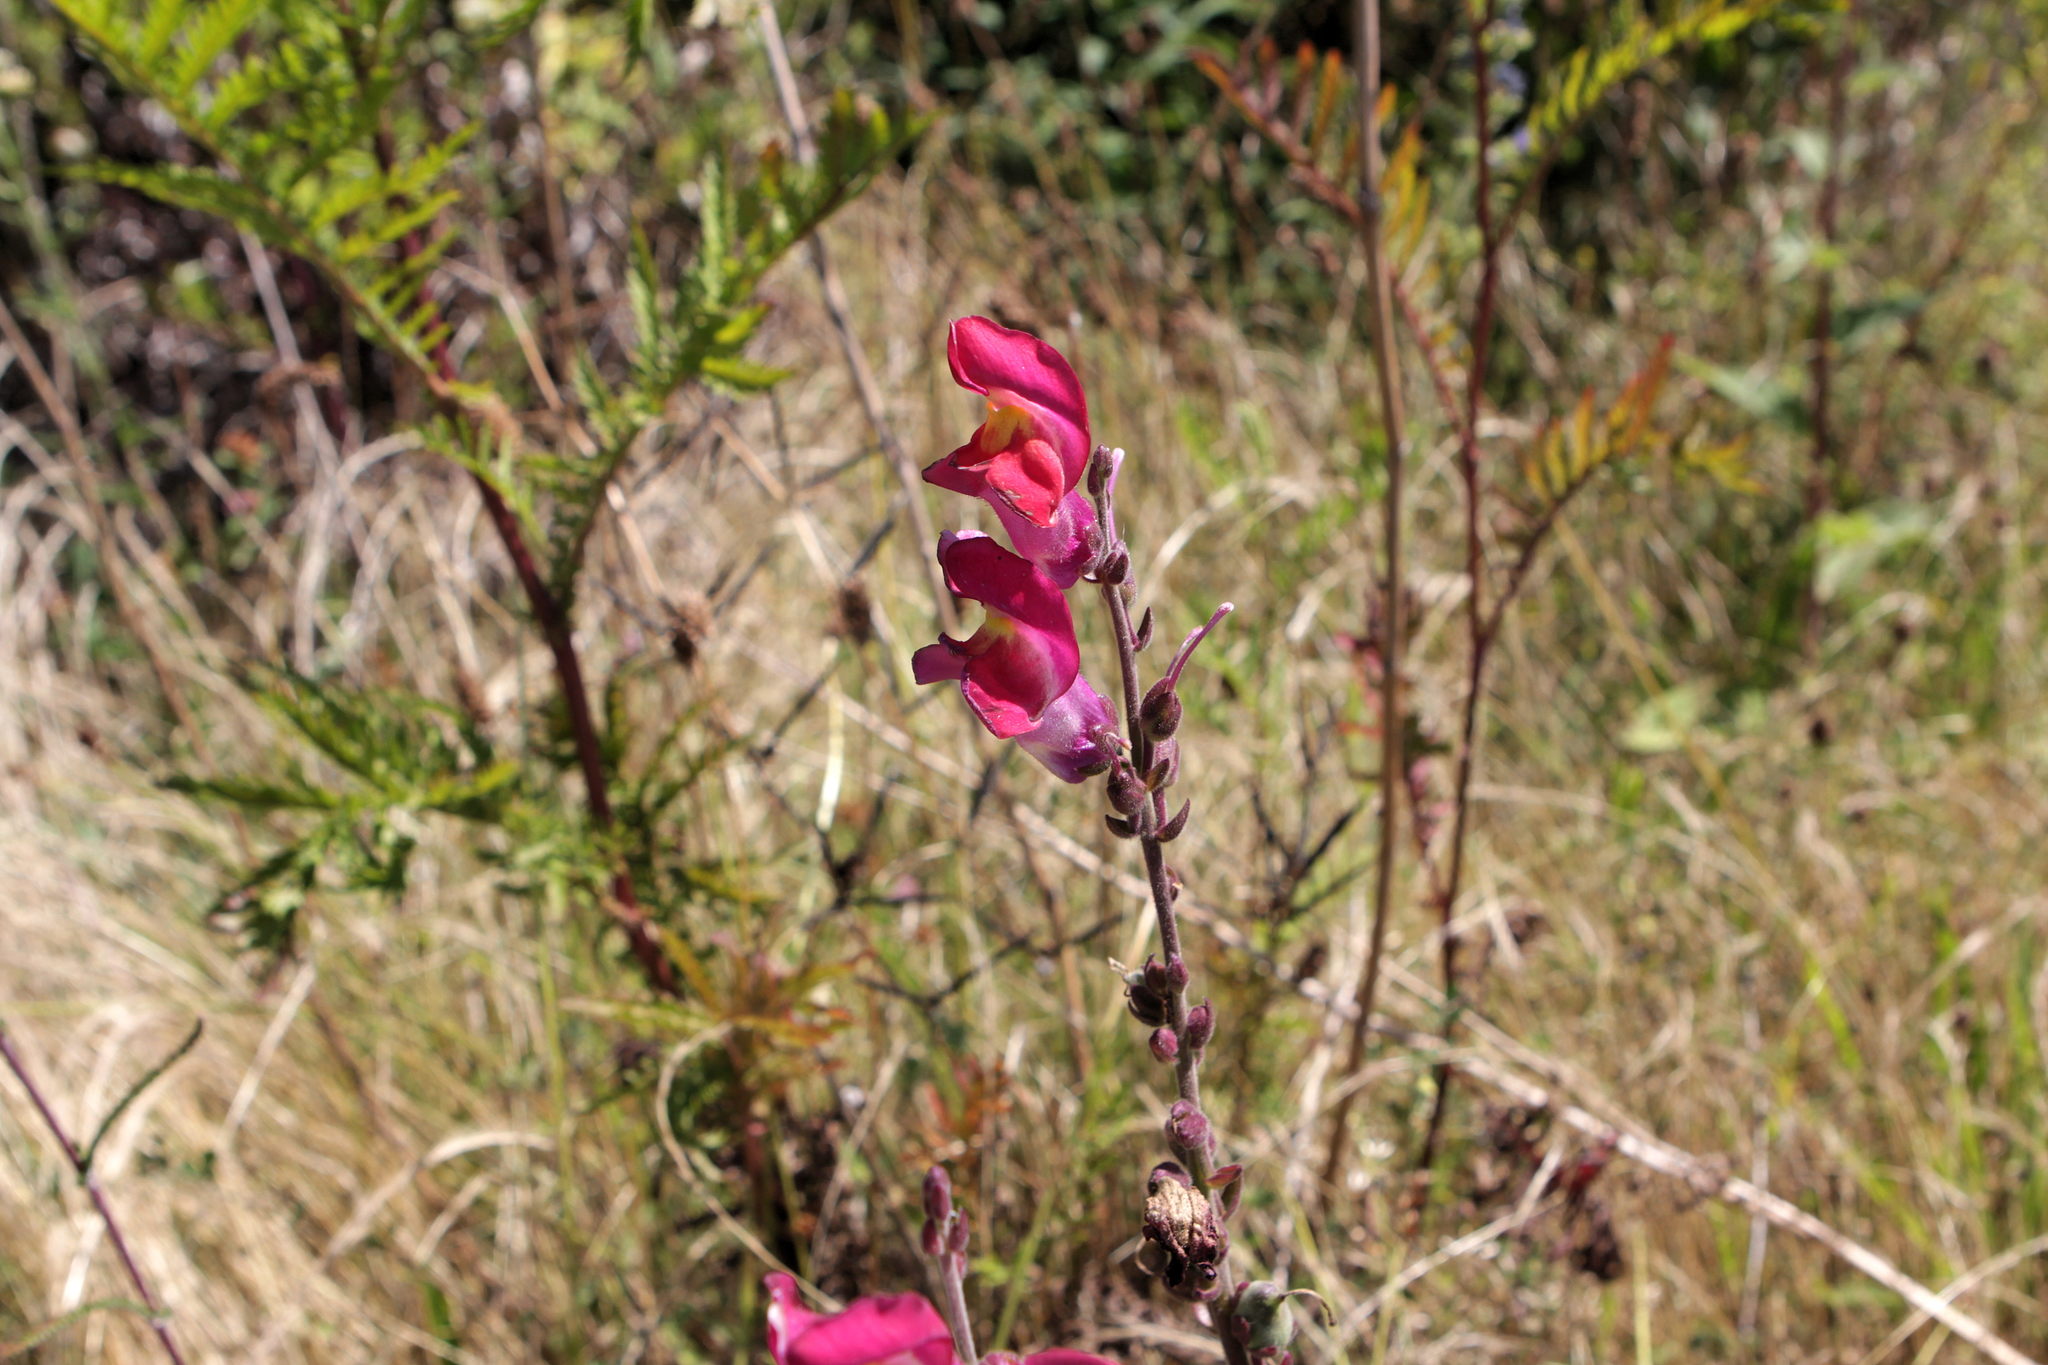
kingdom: Plantae
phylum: Tracheophyta
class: Magnoliopsida
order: Lamiales
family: Plantaginaceae
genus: Antirrhinum
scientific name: Antirrhinum majus
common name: Snapdragon
